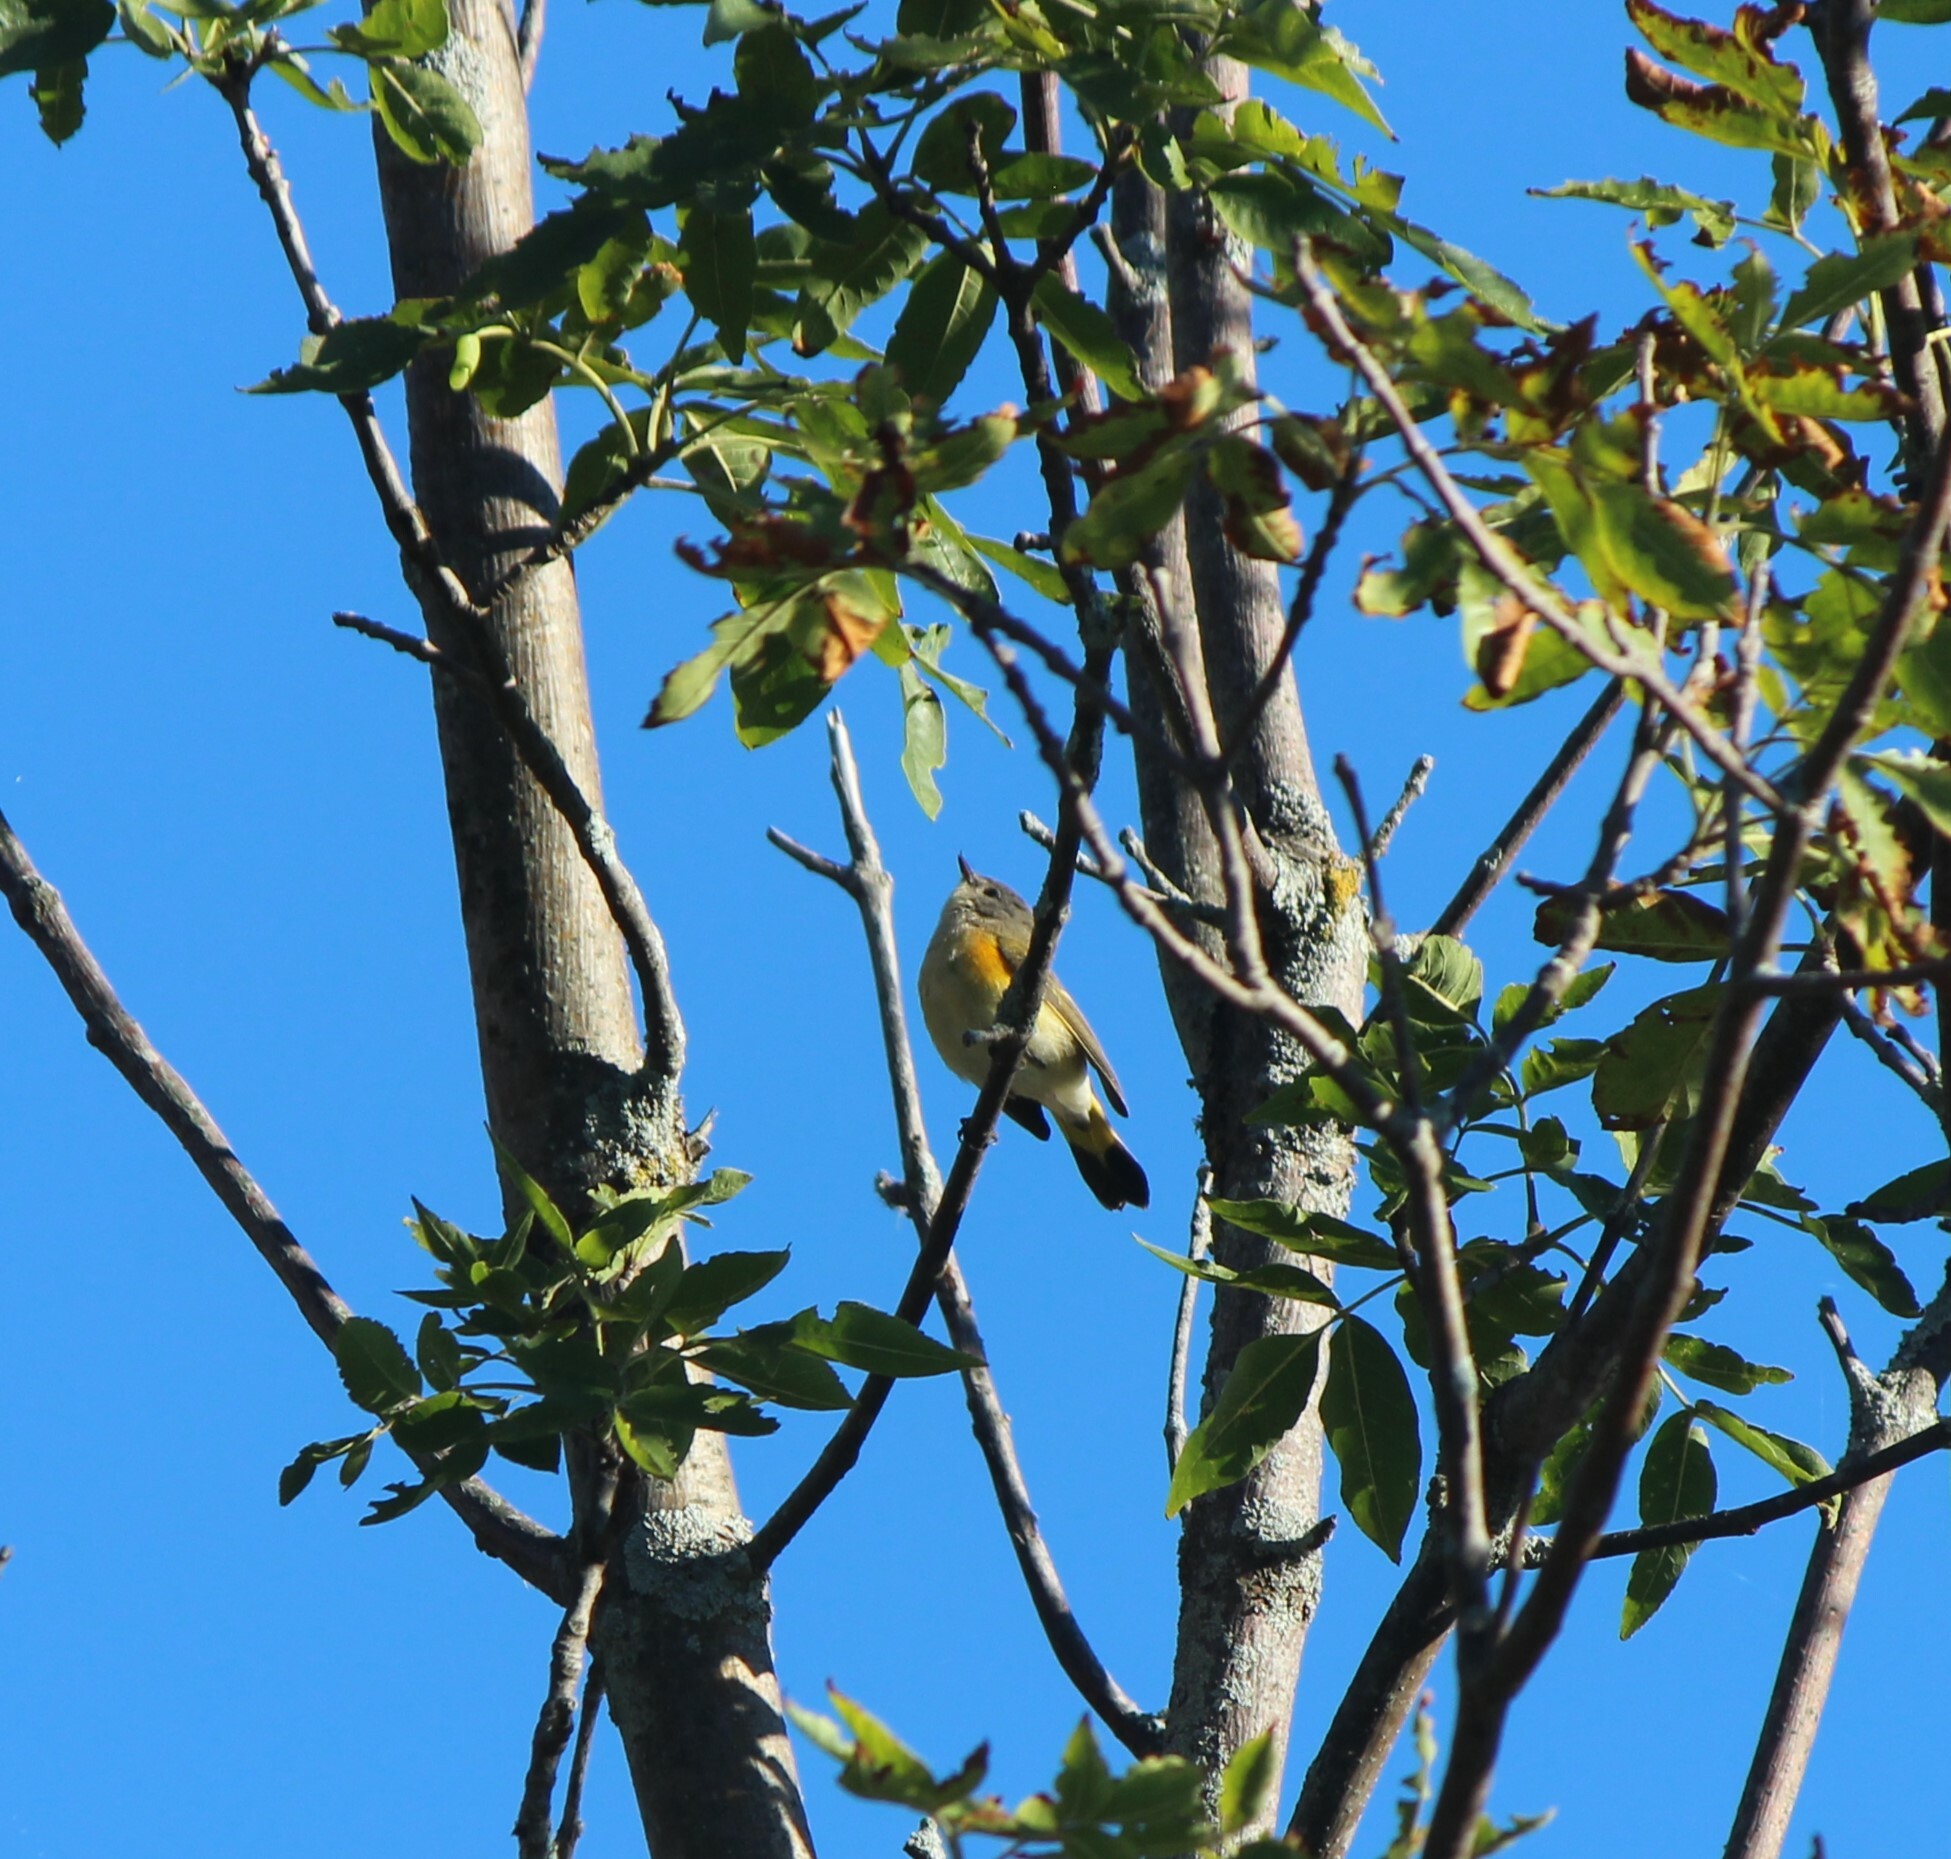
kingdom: Animalia
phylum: Chordata
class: Aves
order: Passeriformes
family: Parulidae
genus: Setophaga
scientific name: Setophaga ruticilla
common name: American redstart
